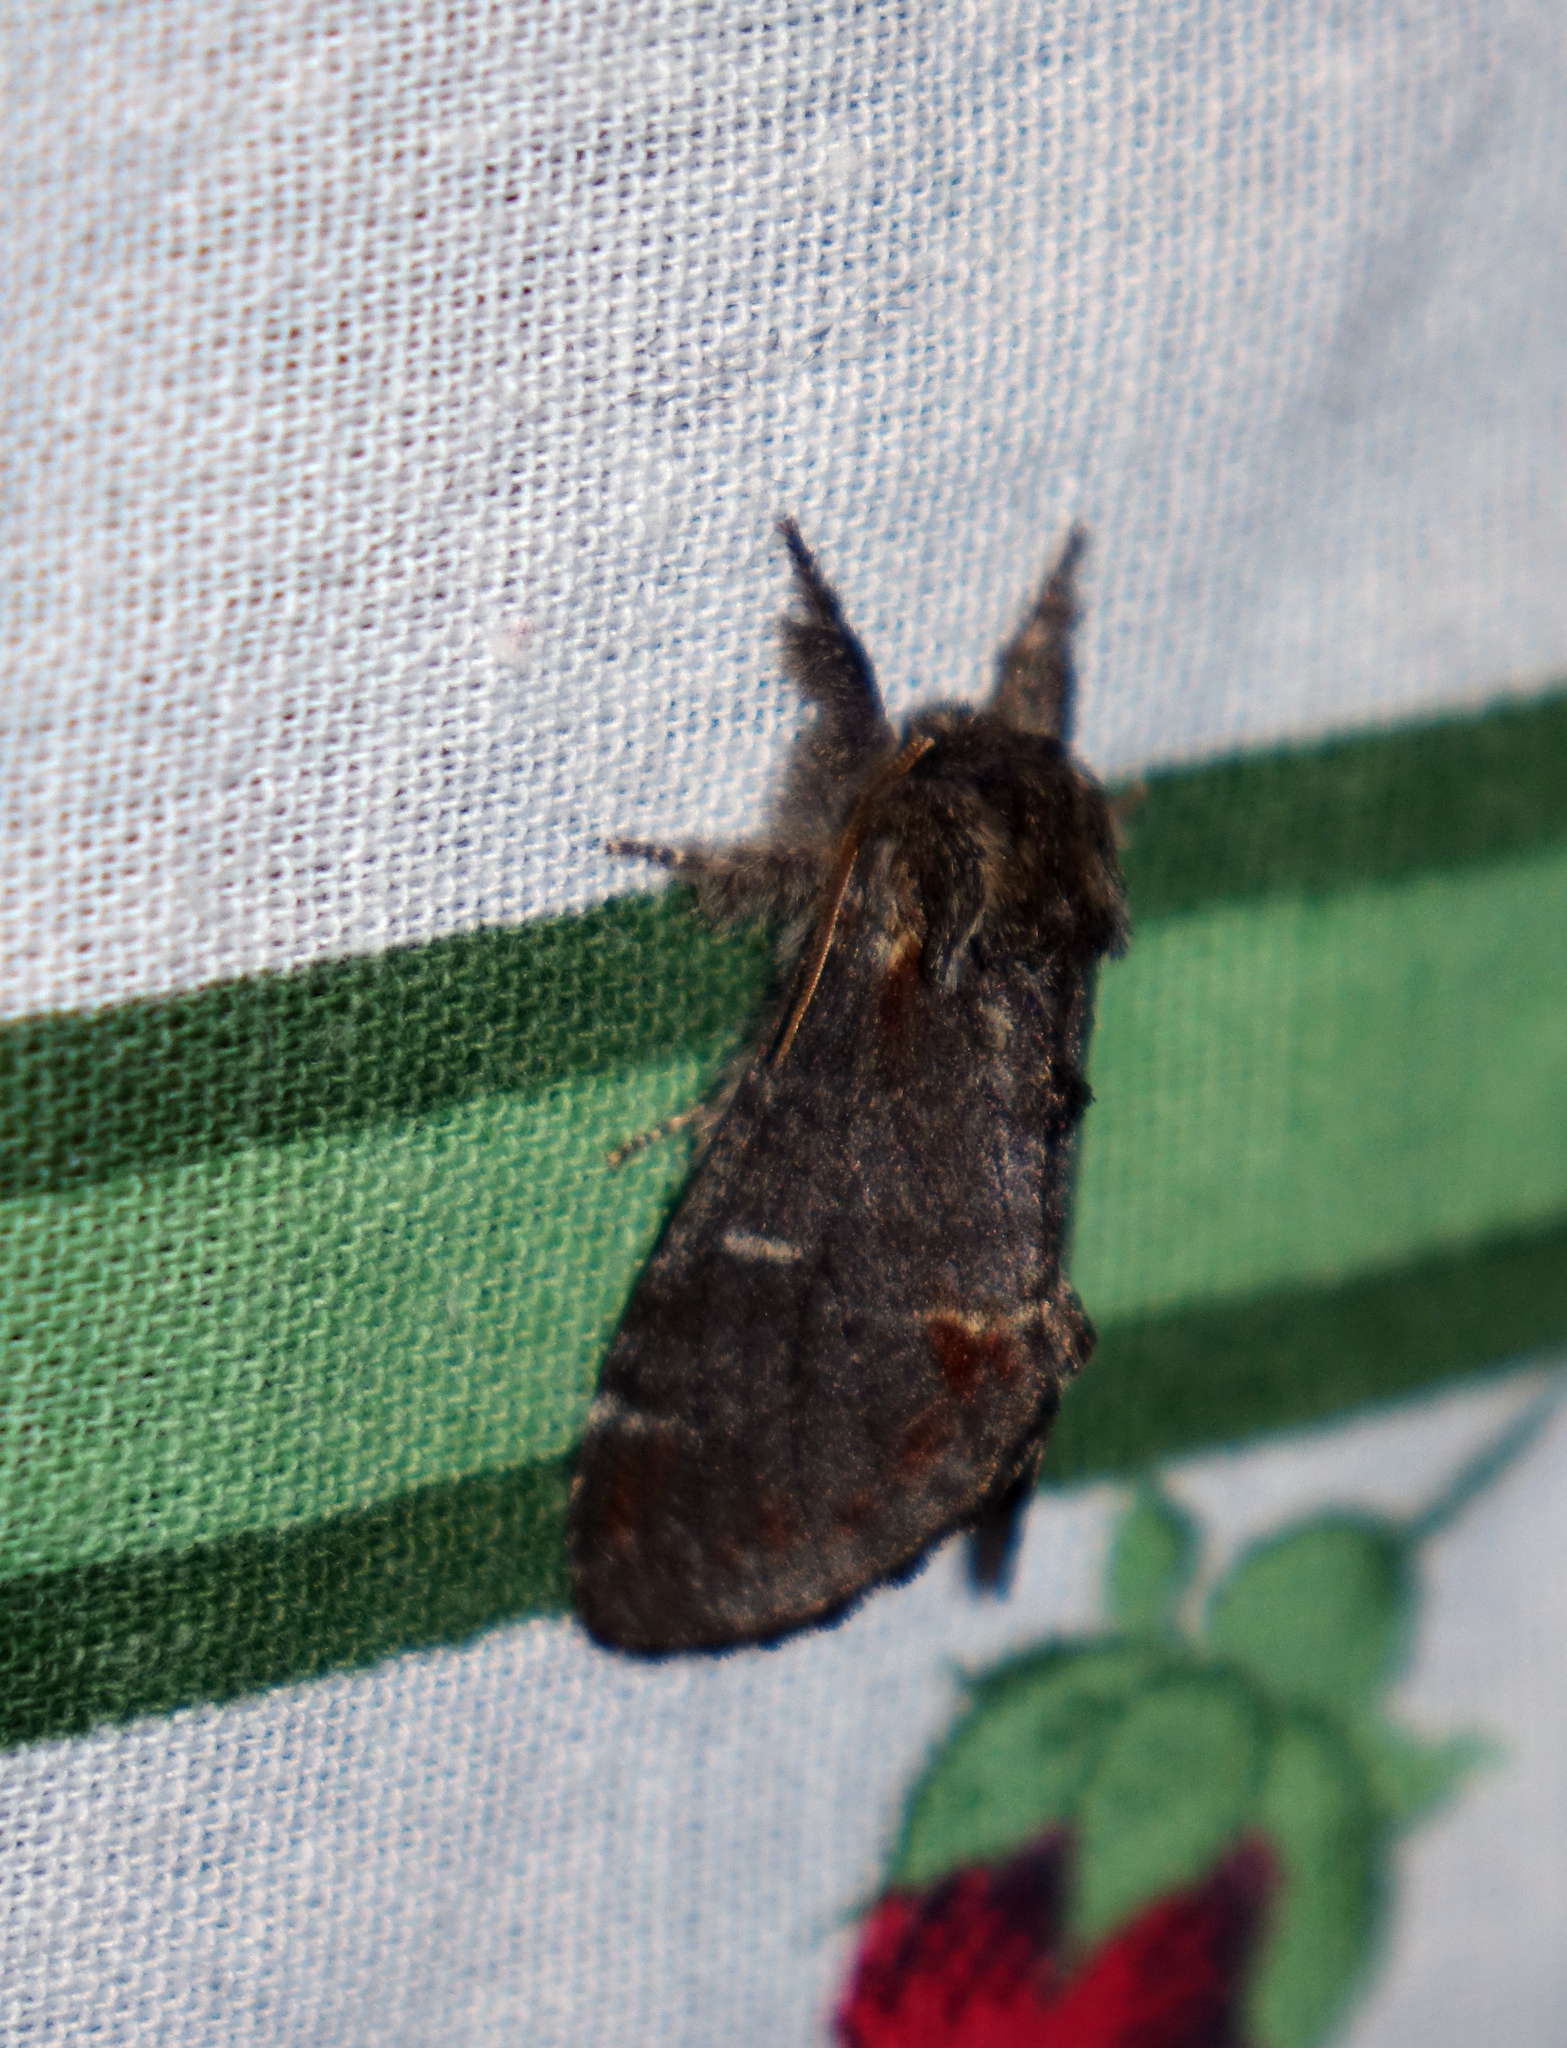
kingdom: Animalia
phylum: Arthropoda
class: Insecta
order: Lepidoptera
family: Notodontidae
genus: Notodonta
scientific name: Notodonta dromedarius
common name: Iron prominent
